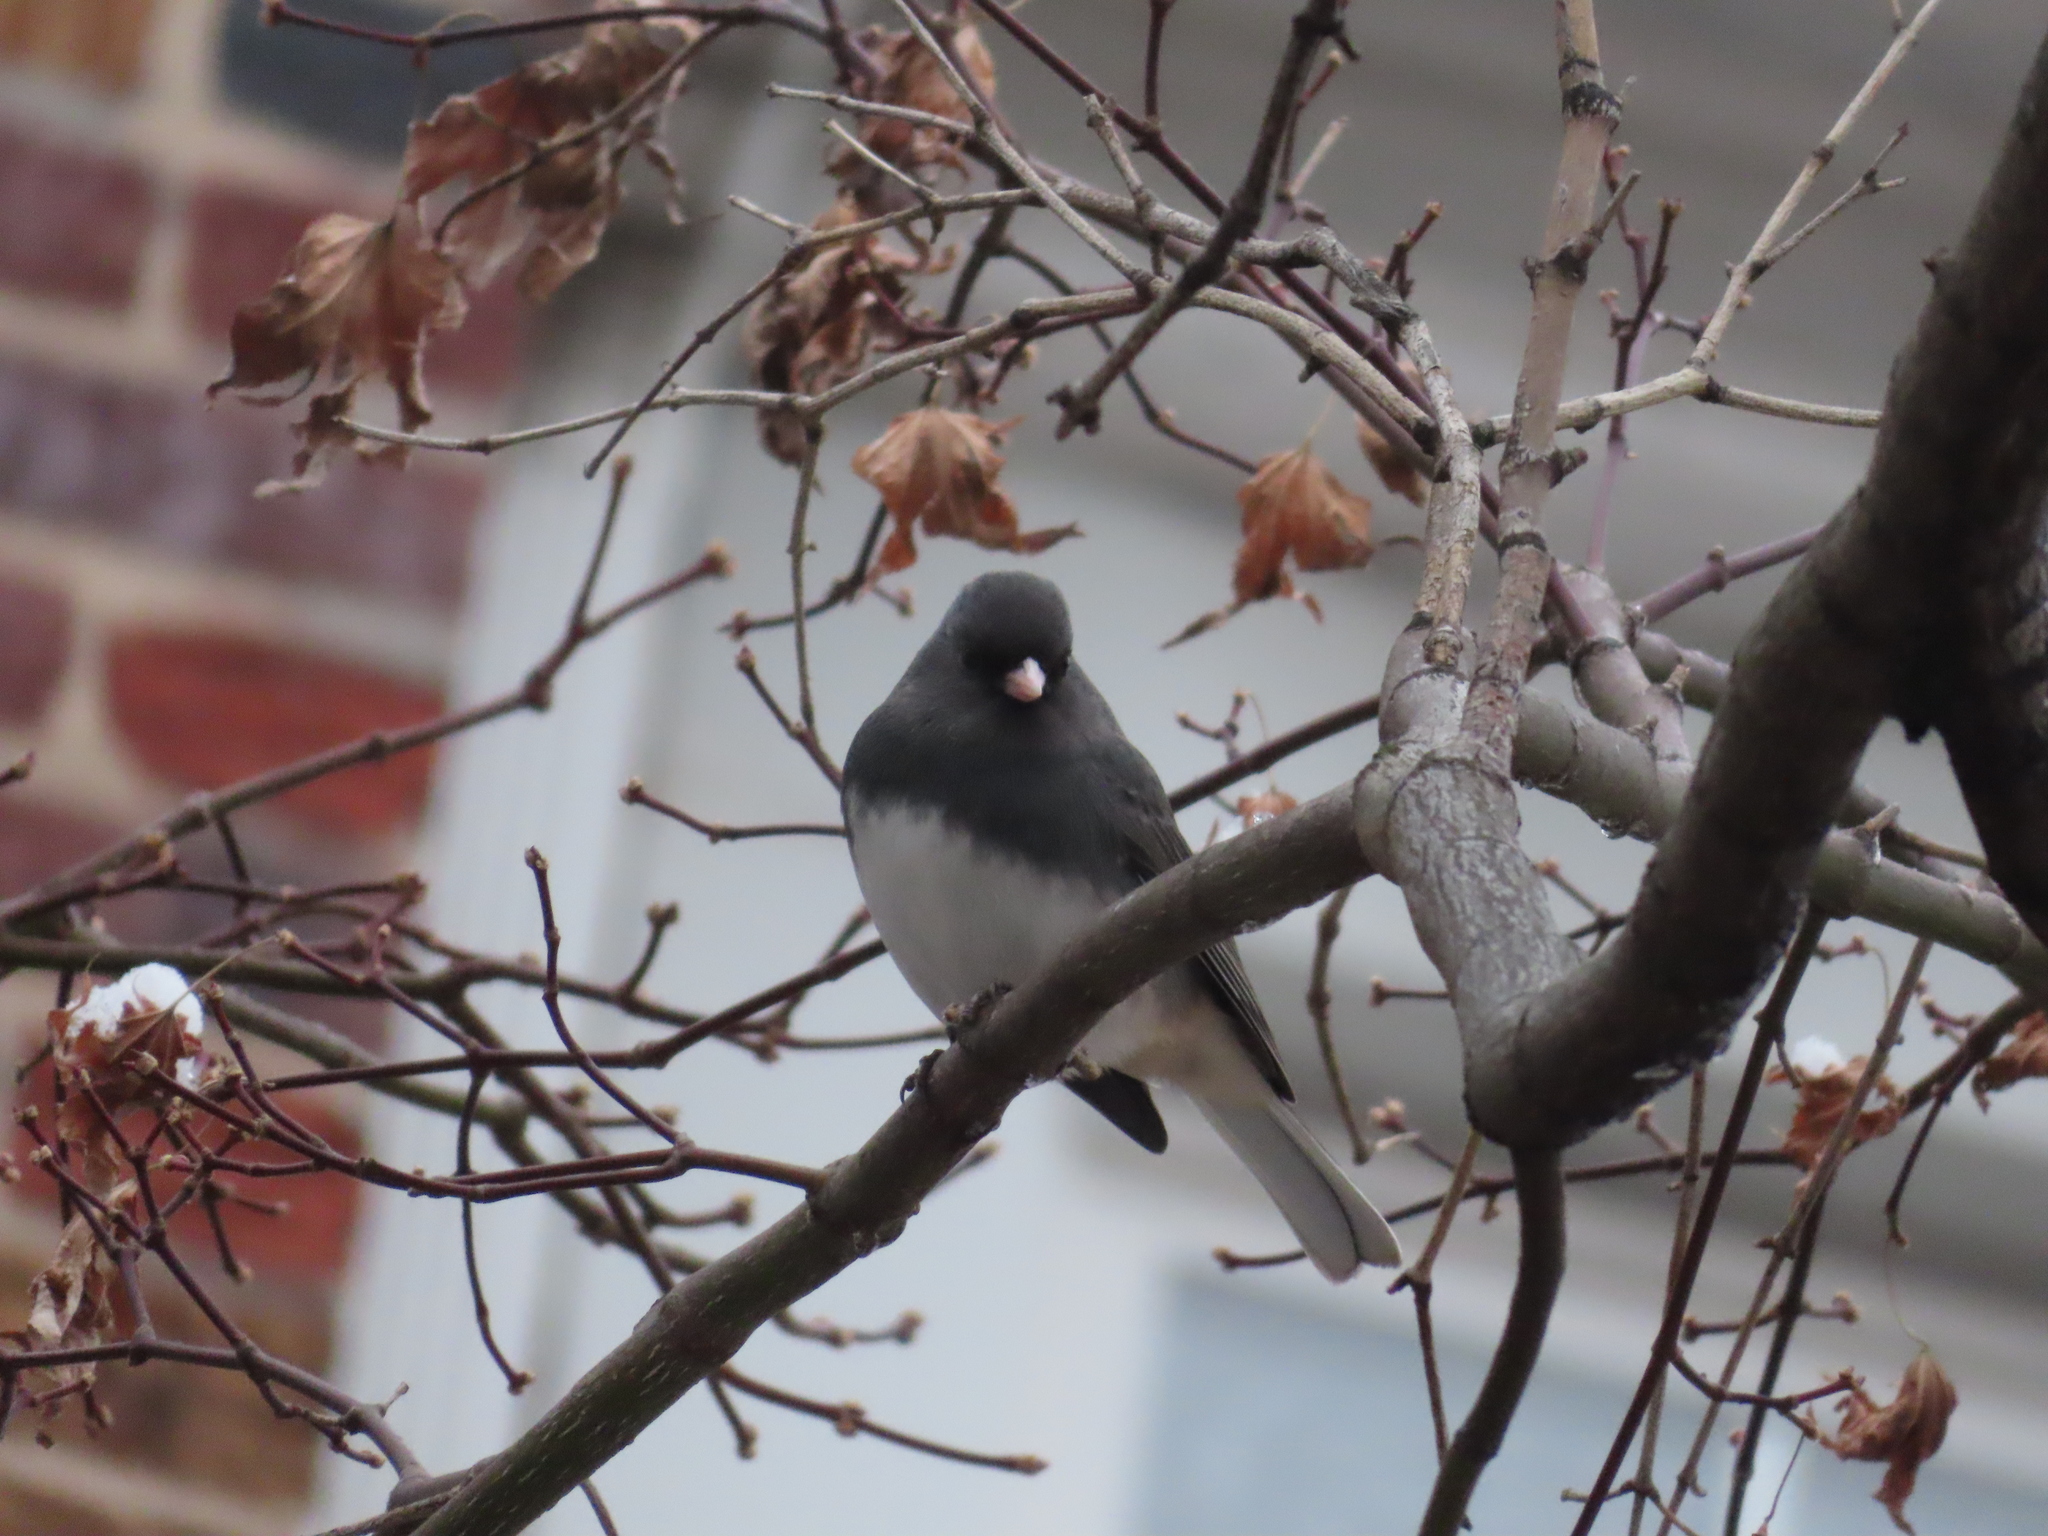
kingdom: Animalia
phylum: Chordata
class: Aves
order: Passeriformes
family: Passerellidae
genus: Junco
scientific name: Junco hyemalis
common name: Dark-eyed junco
